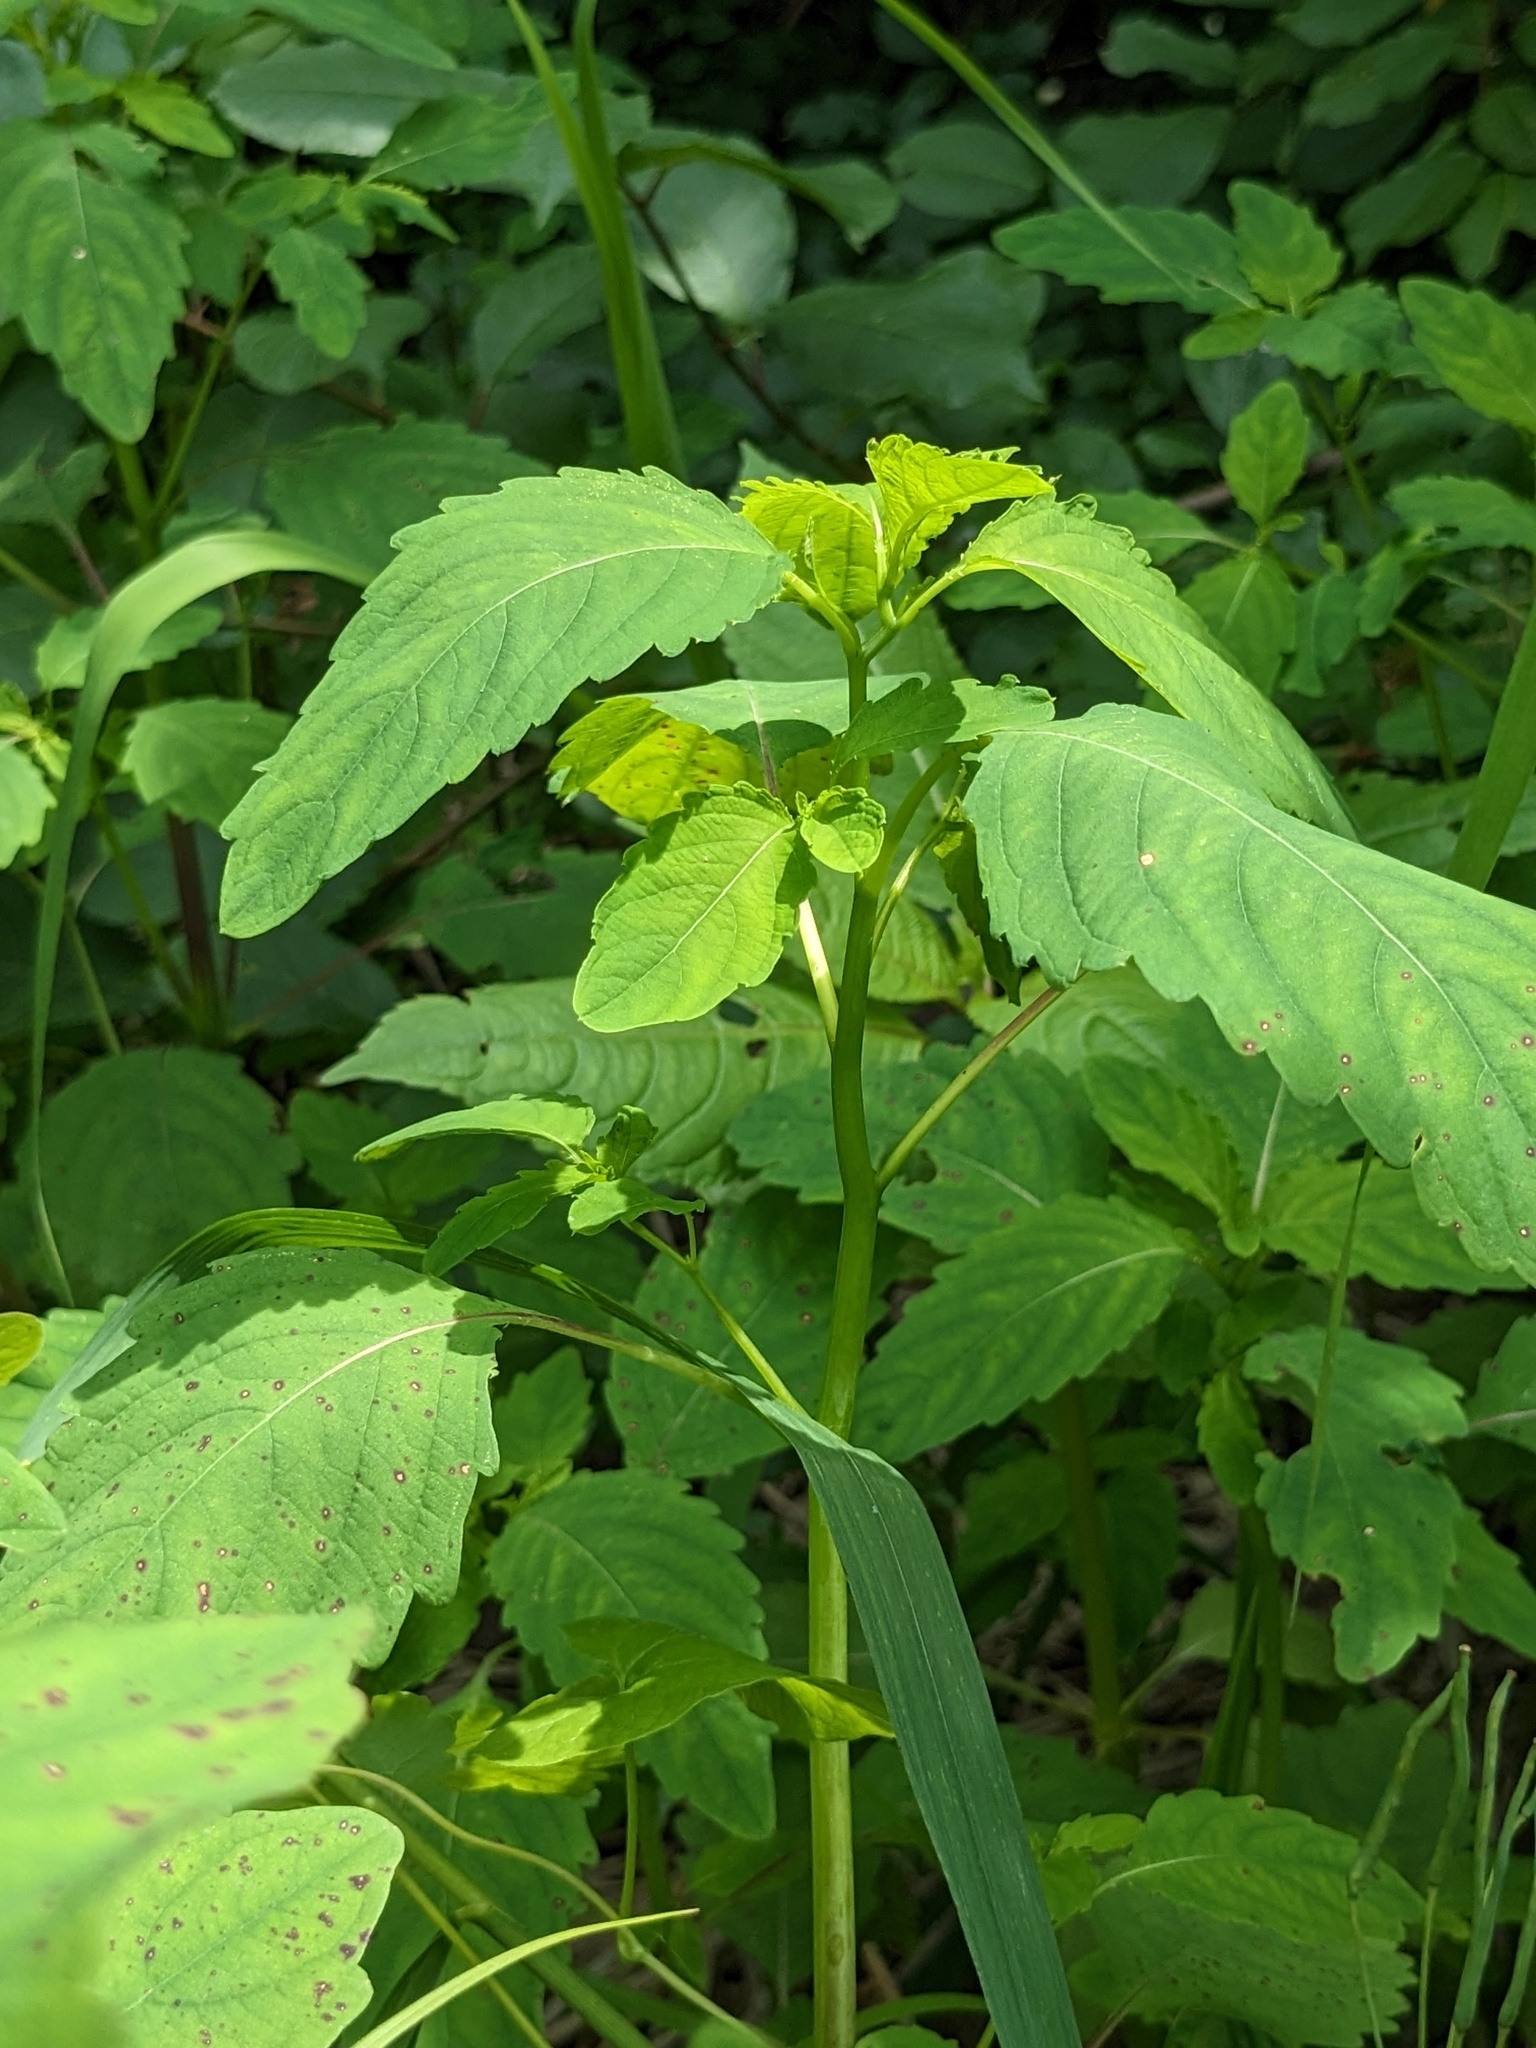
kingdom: Plantae
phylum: Tracheophyta
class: Magnoliopsida
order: Ericales
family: Balsaminaceae
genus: Impatiens
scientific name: Impatiens noli-tangere
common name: Touch-me-not balsam
